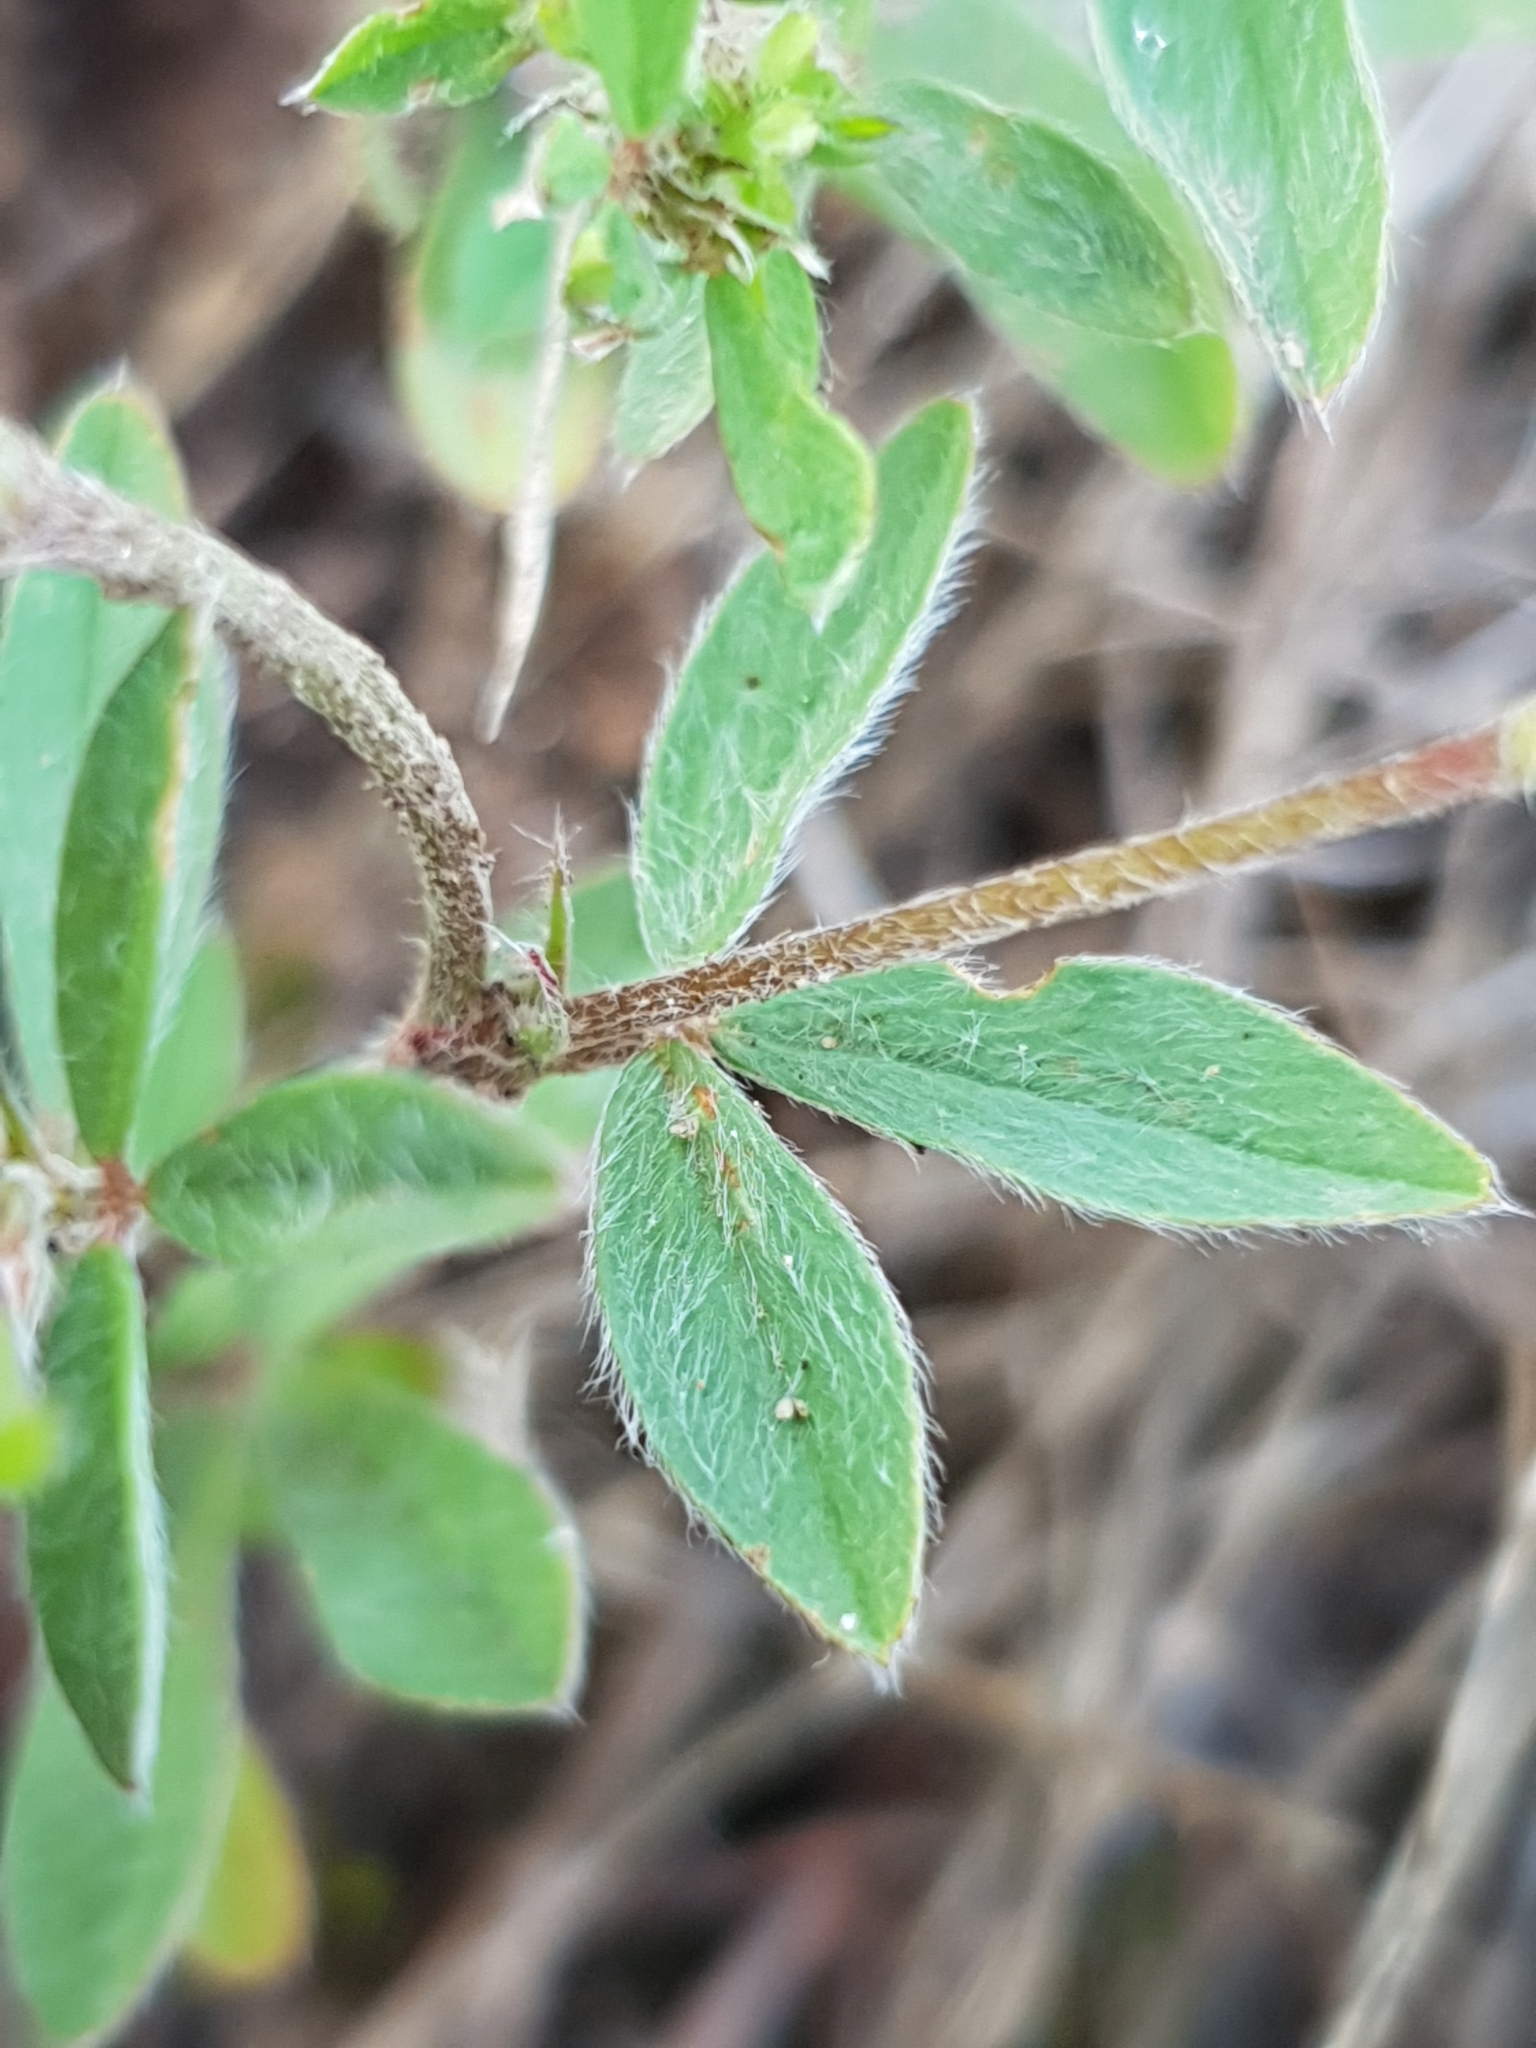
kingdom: Plantae
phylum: Tracheophyta
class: Magnoliopsida
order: Fabales
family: Fabaceae
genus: Trifolium
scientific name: Trifolium arvense
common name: Hare's-foot clover
